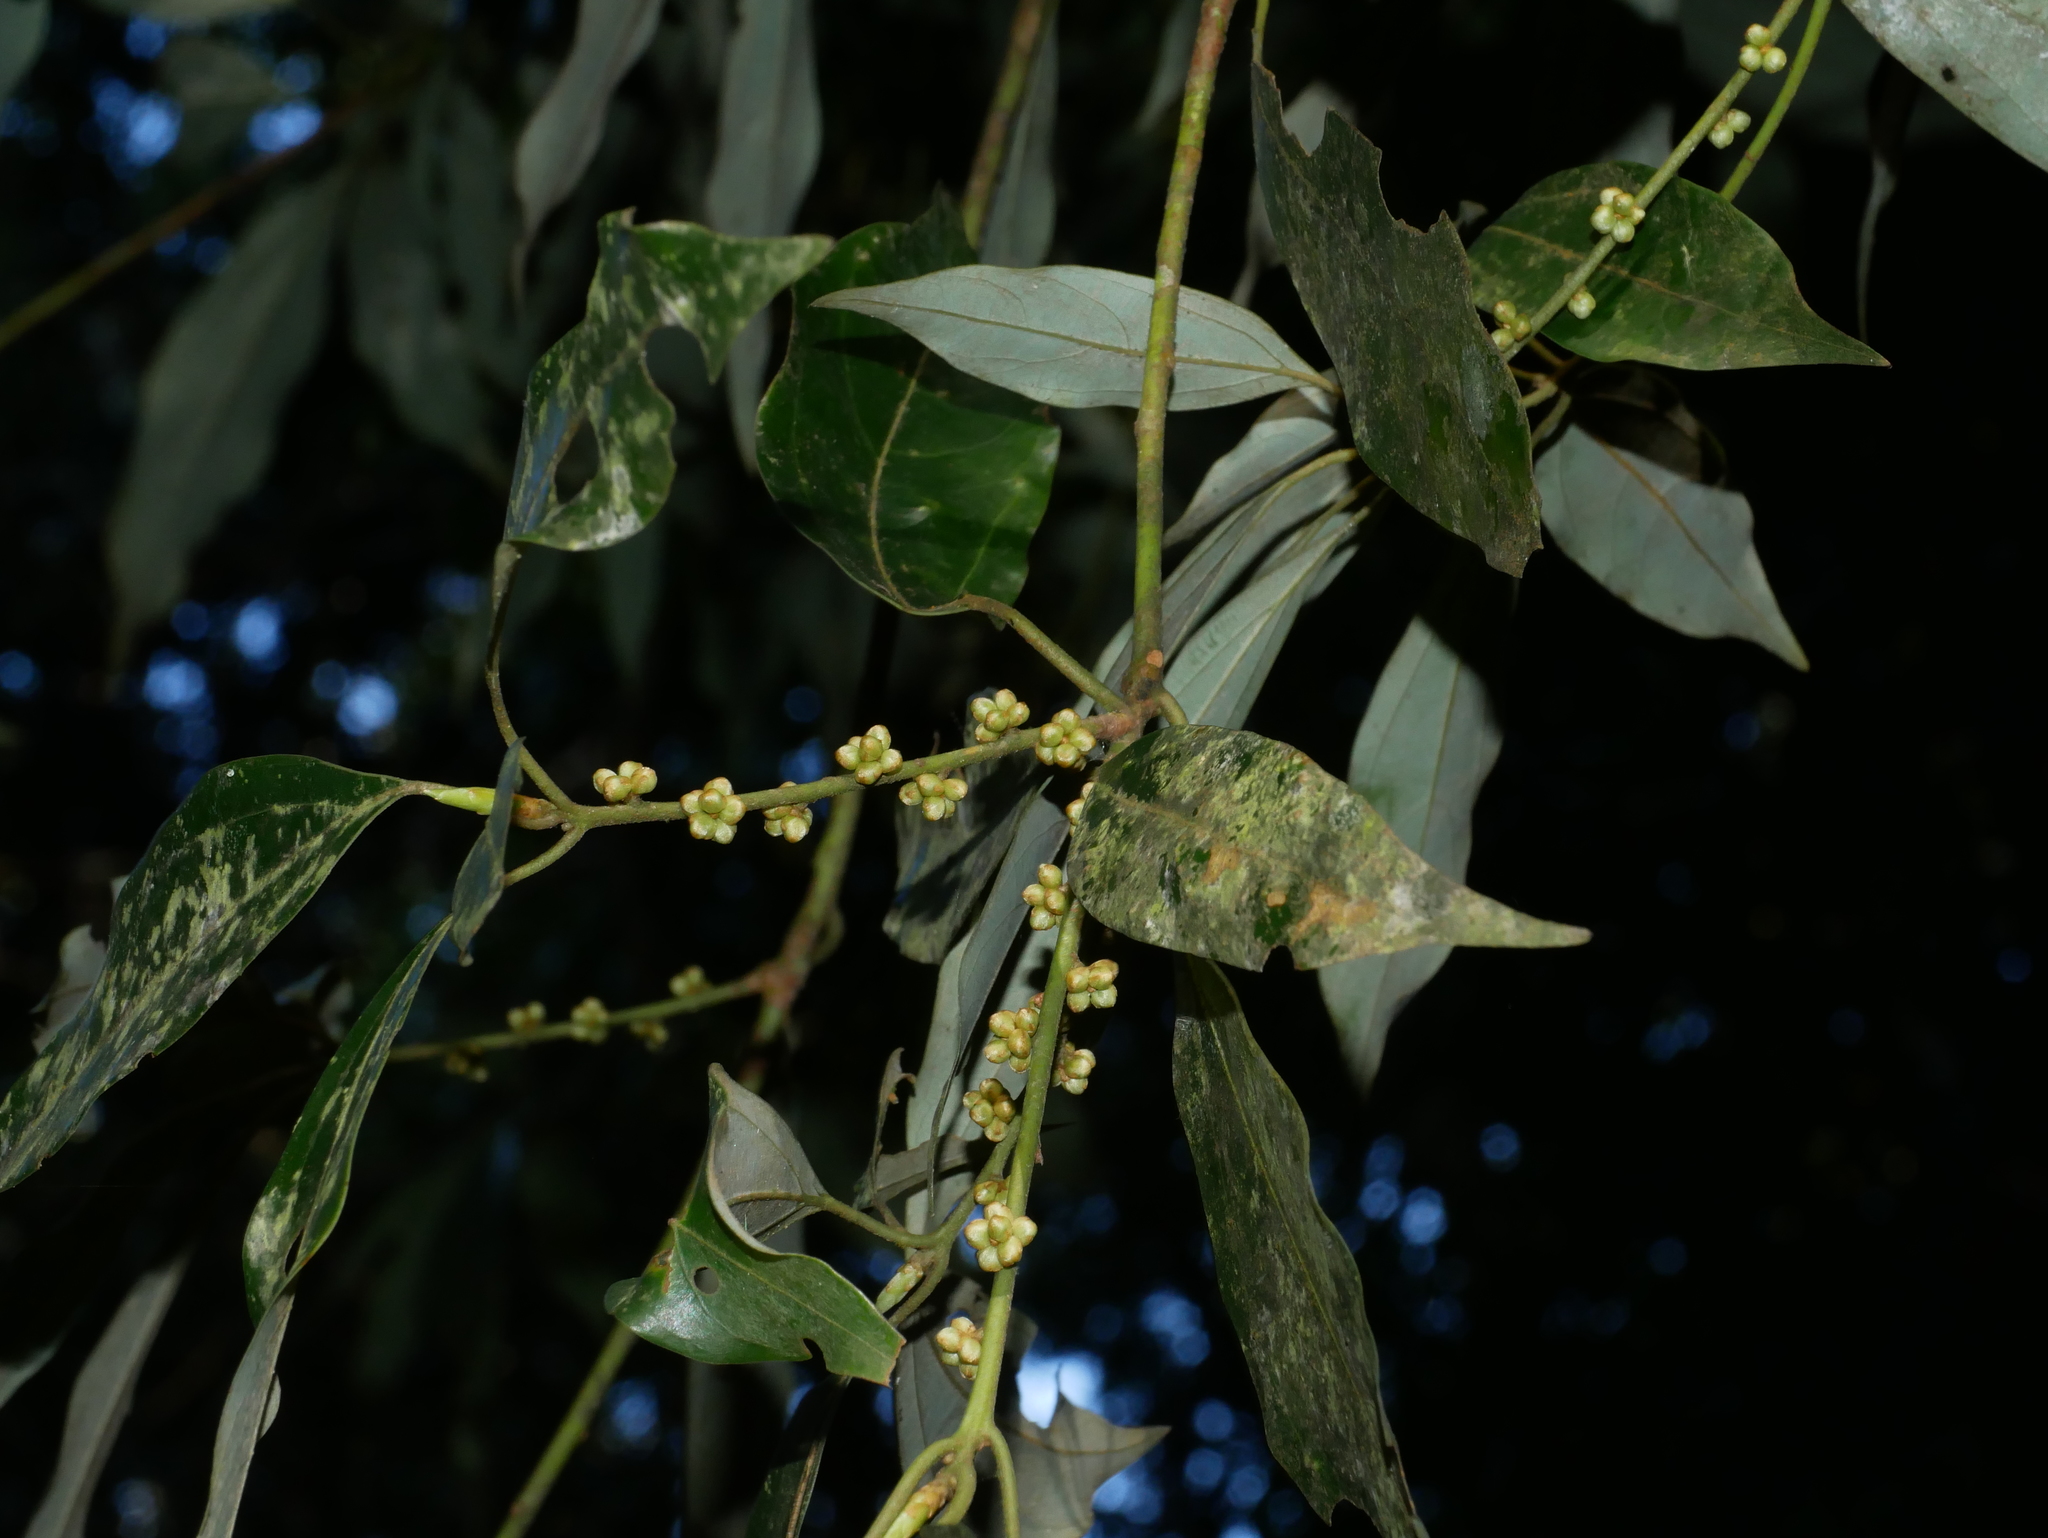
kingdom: Plantae
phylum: Tracheophyta
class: Magnoliopsida
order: Laurales
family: Lauraceae
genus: Neolitsea
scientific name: Neolitsea variabillima
